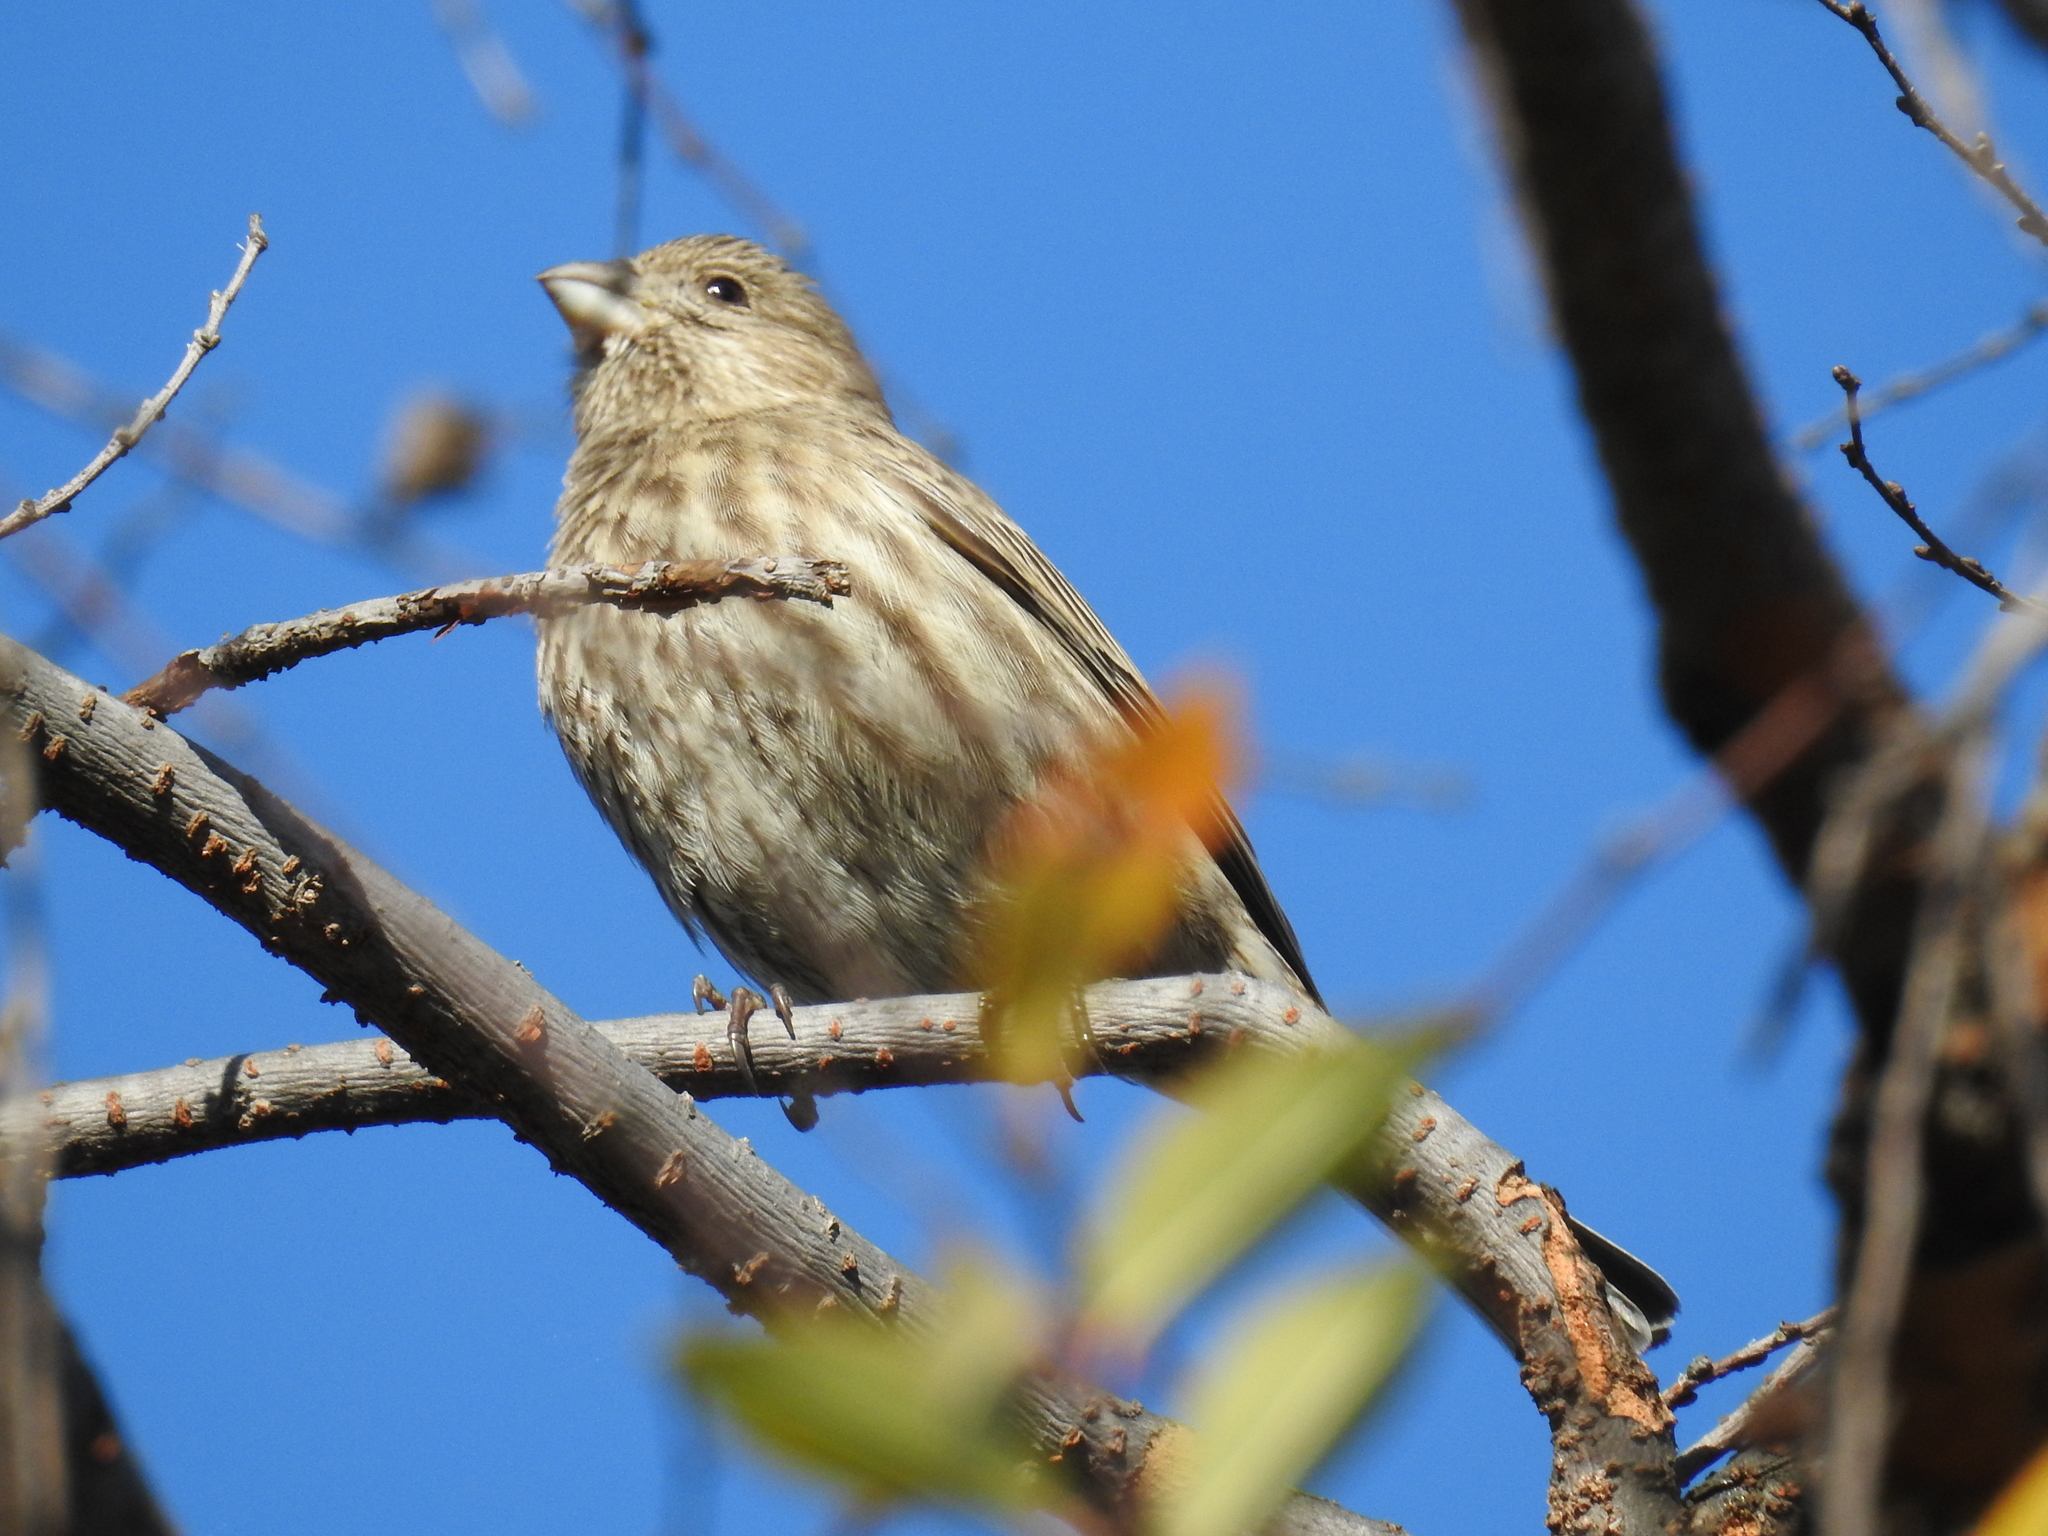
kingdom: Animalia
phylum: Chordata
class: Aves
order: Passeriformes
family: Fringillidae
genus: Haemorhous
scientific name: Haemorhous mexicanus
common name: House finch
